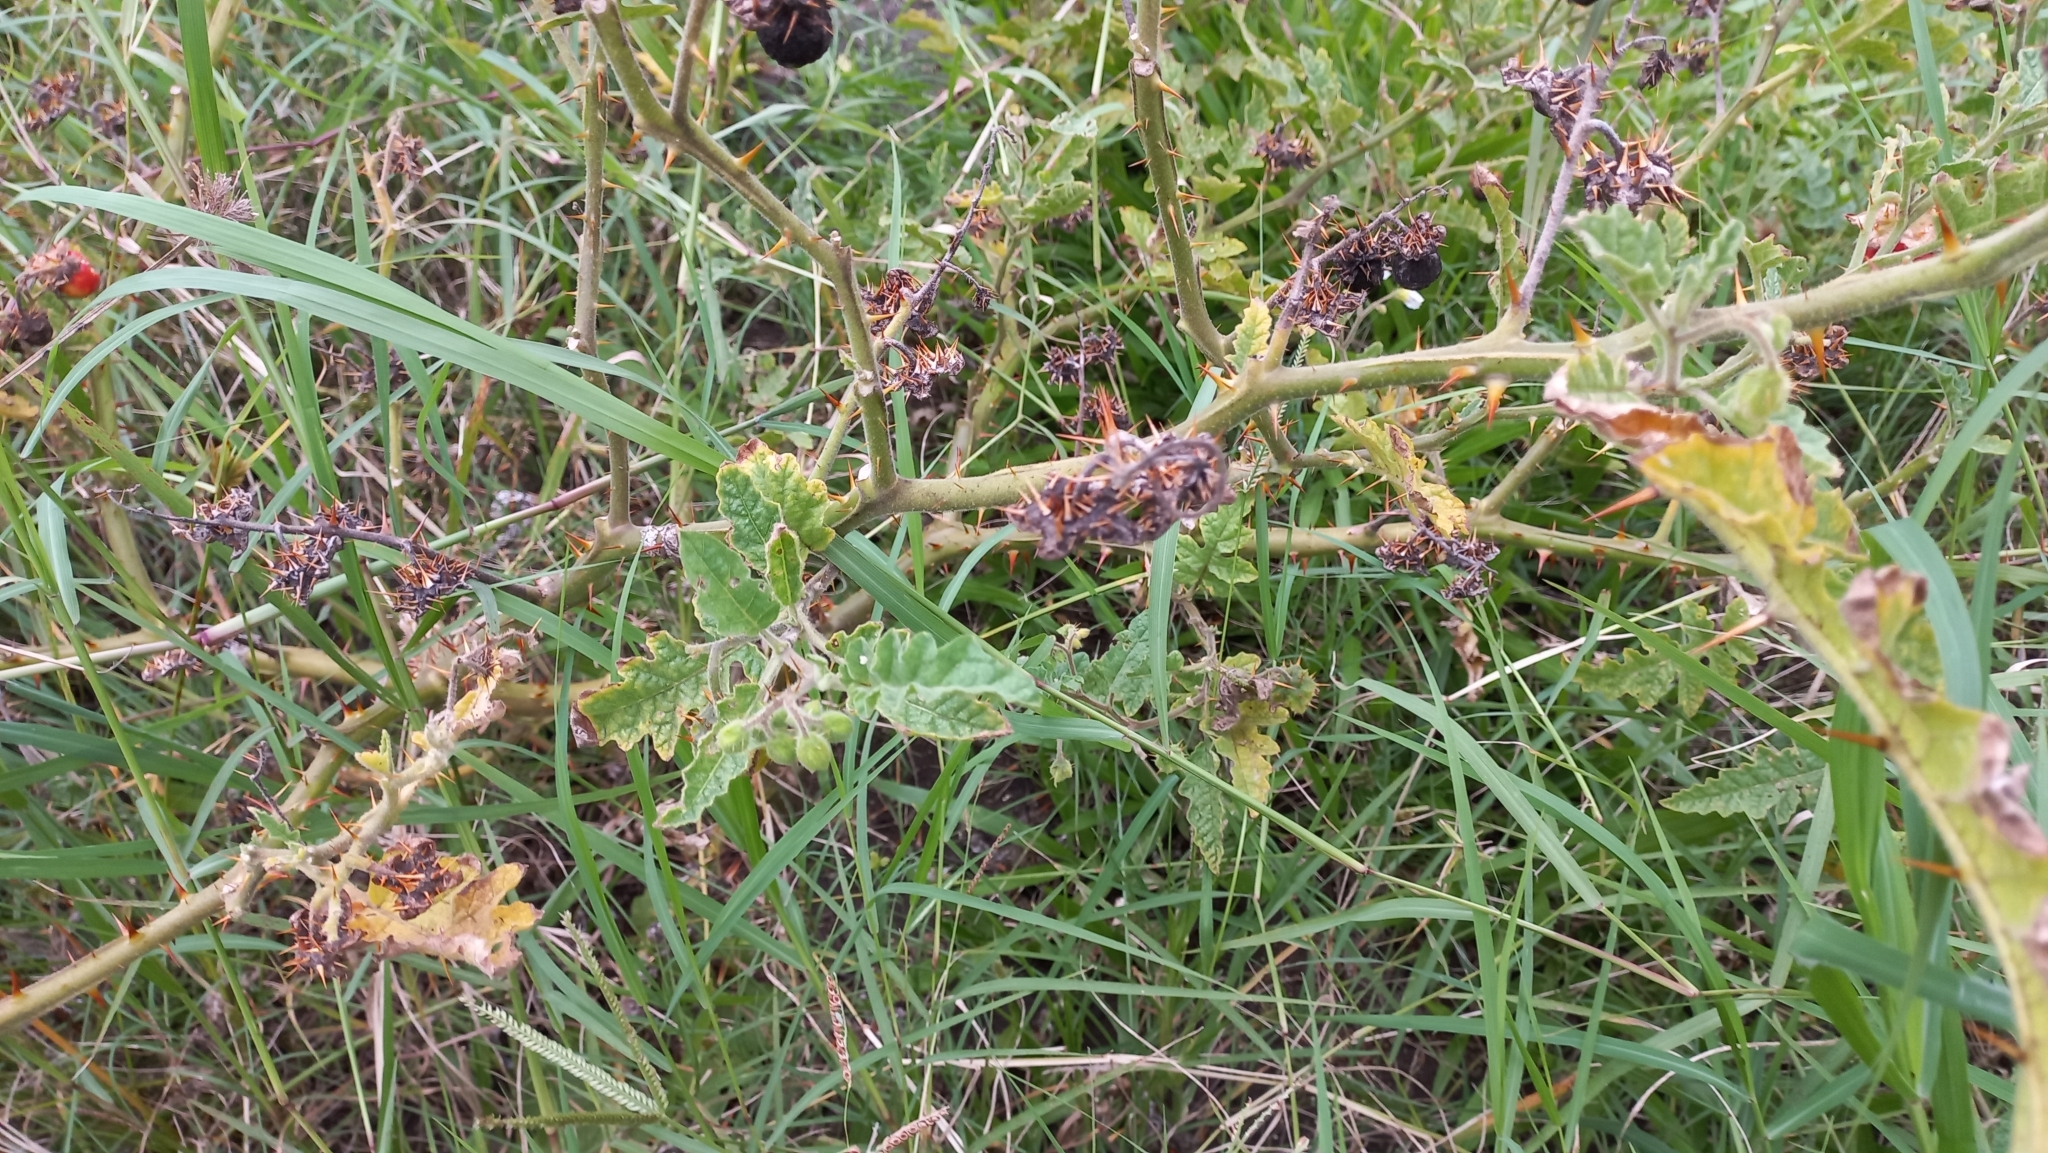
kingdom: Plantae
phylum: Tracheophyta
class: Magnoliopsida
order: Solanales
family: Solanaceae
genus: Solanum
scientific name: Solanum sisymbriifolium
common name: Red buffalo-bur
